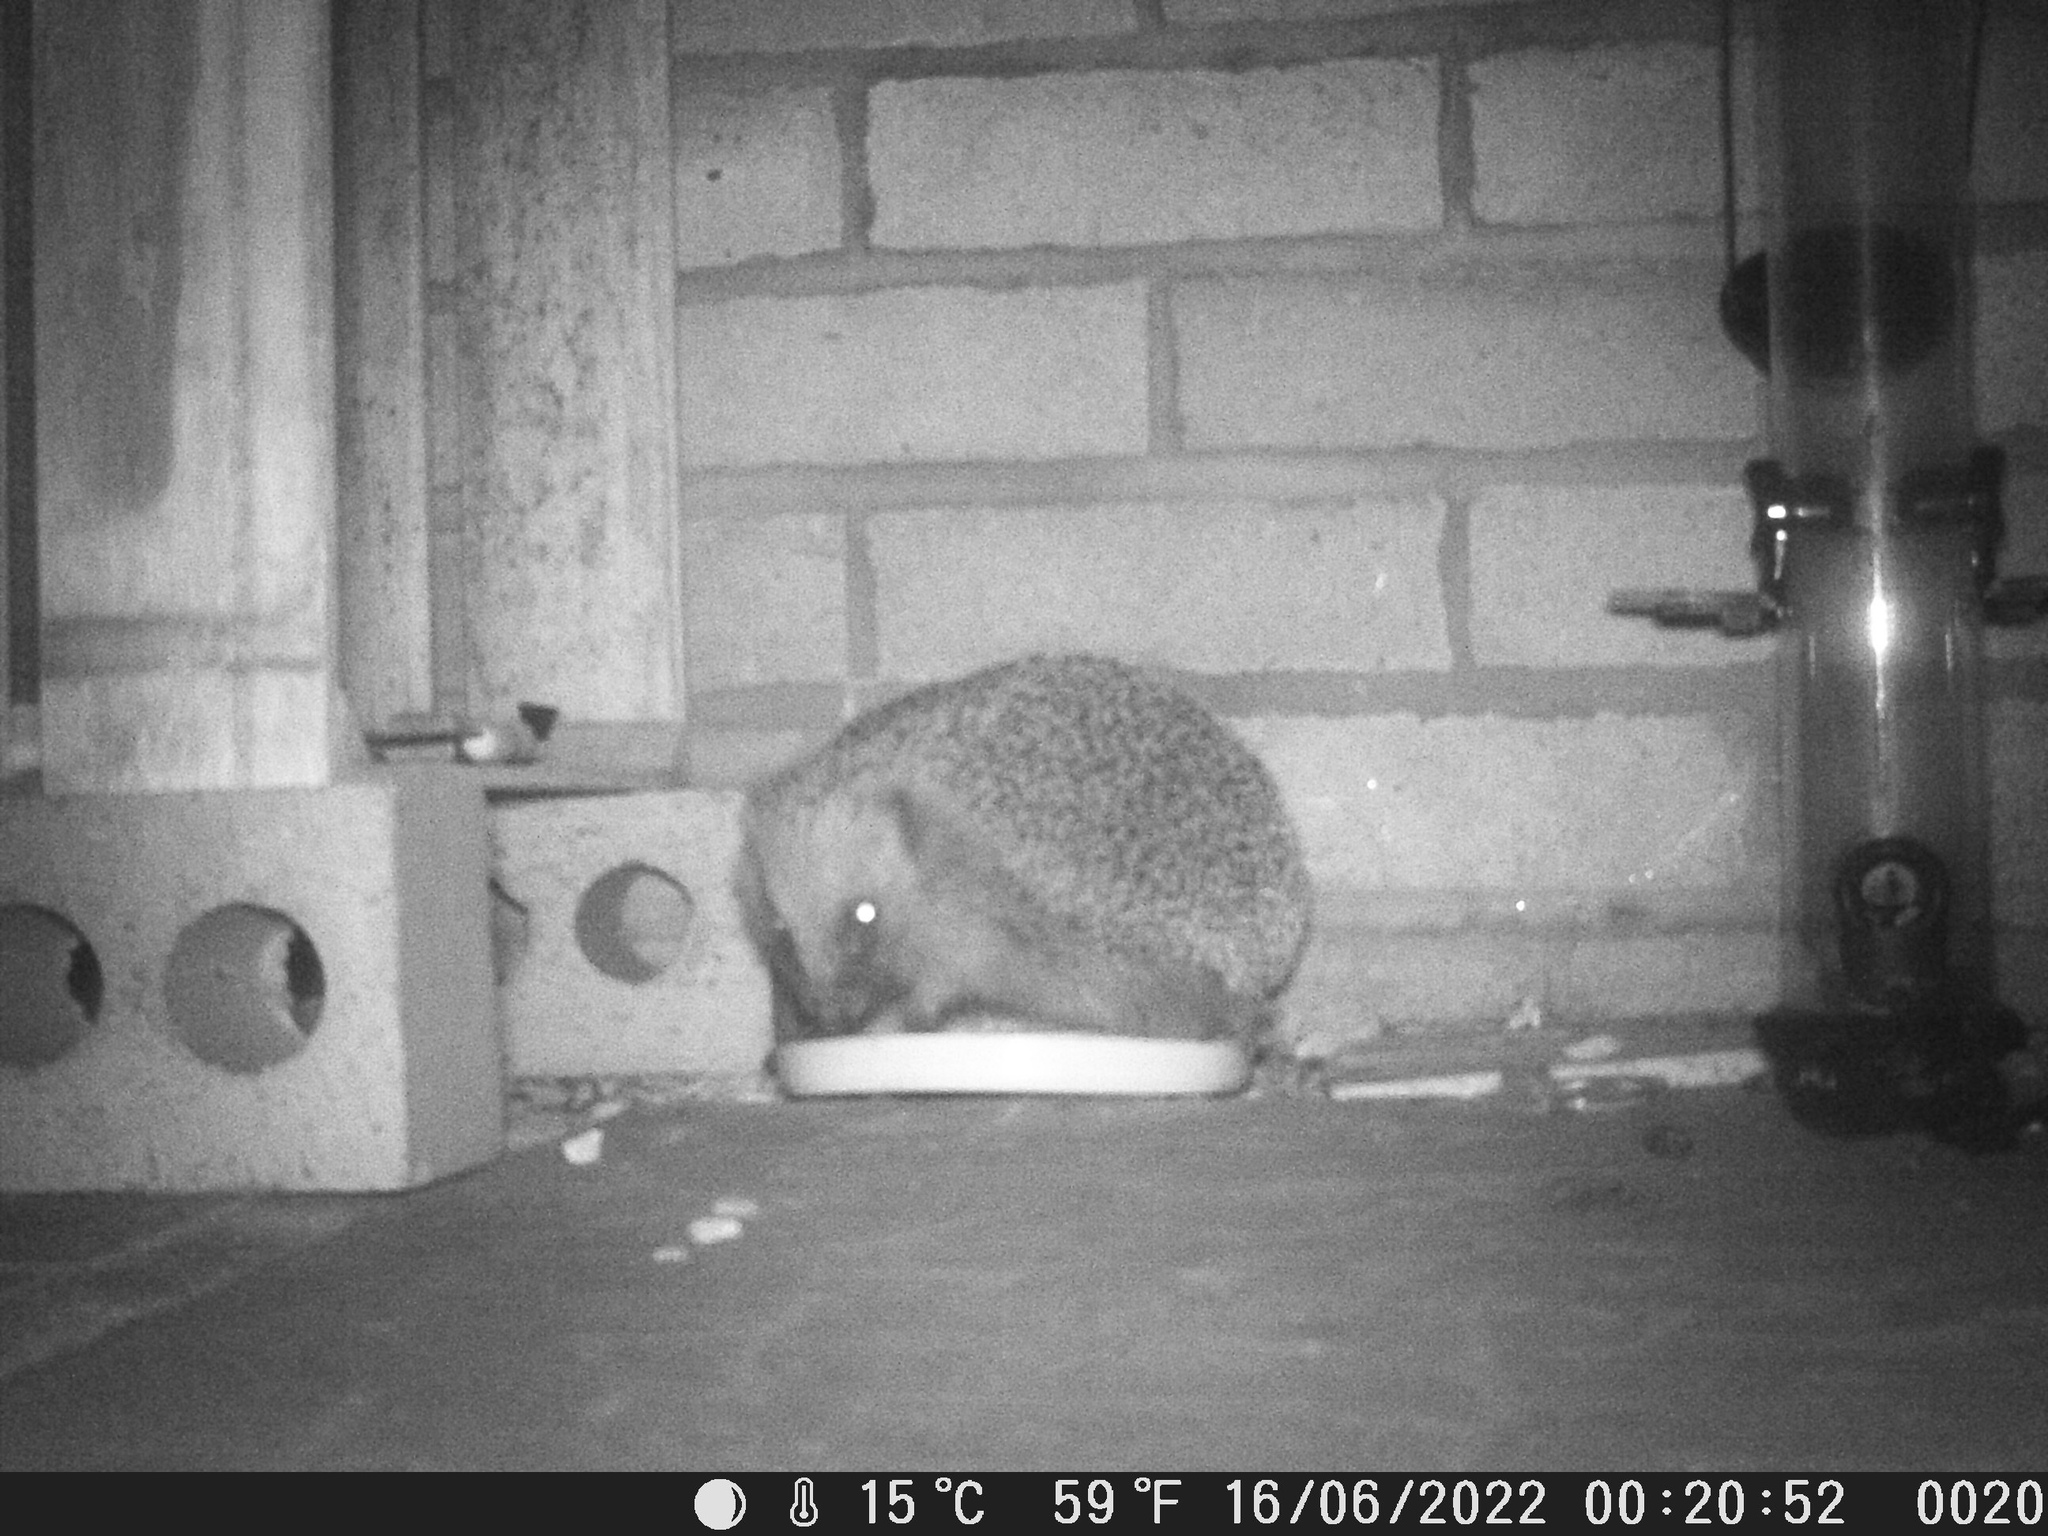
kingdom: Animalia
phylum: Chordata
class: Mammalia
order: Erinaceomorpha
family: Erinaceidae
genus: Erinaceus
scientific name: Erinaceus europaeus
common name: West european hedgehog
